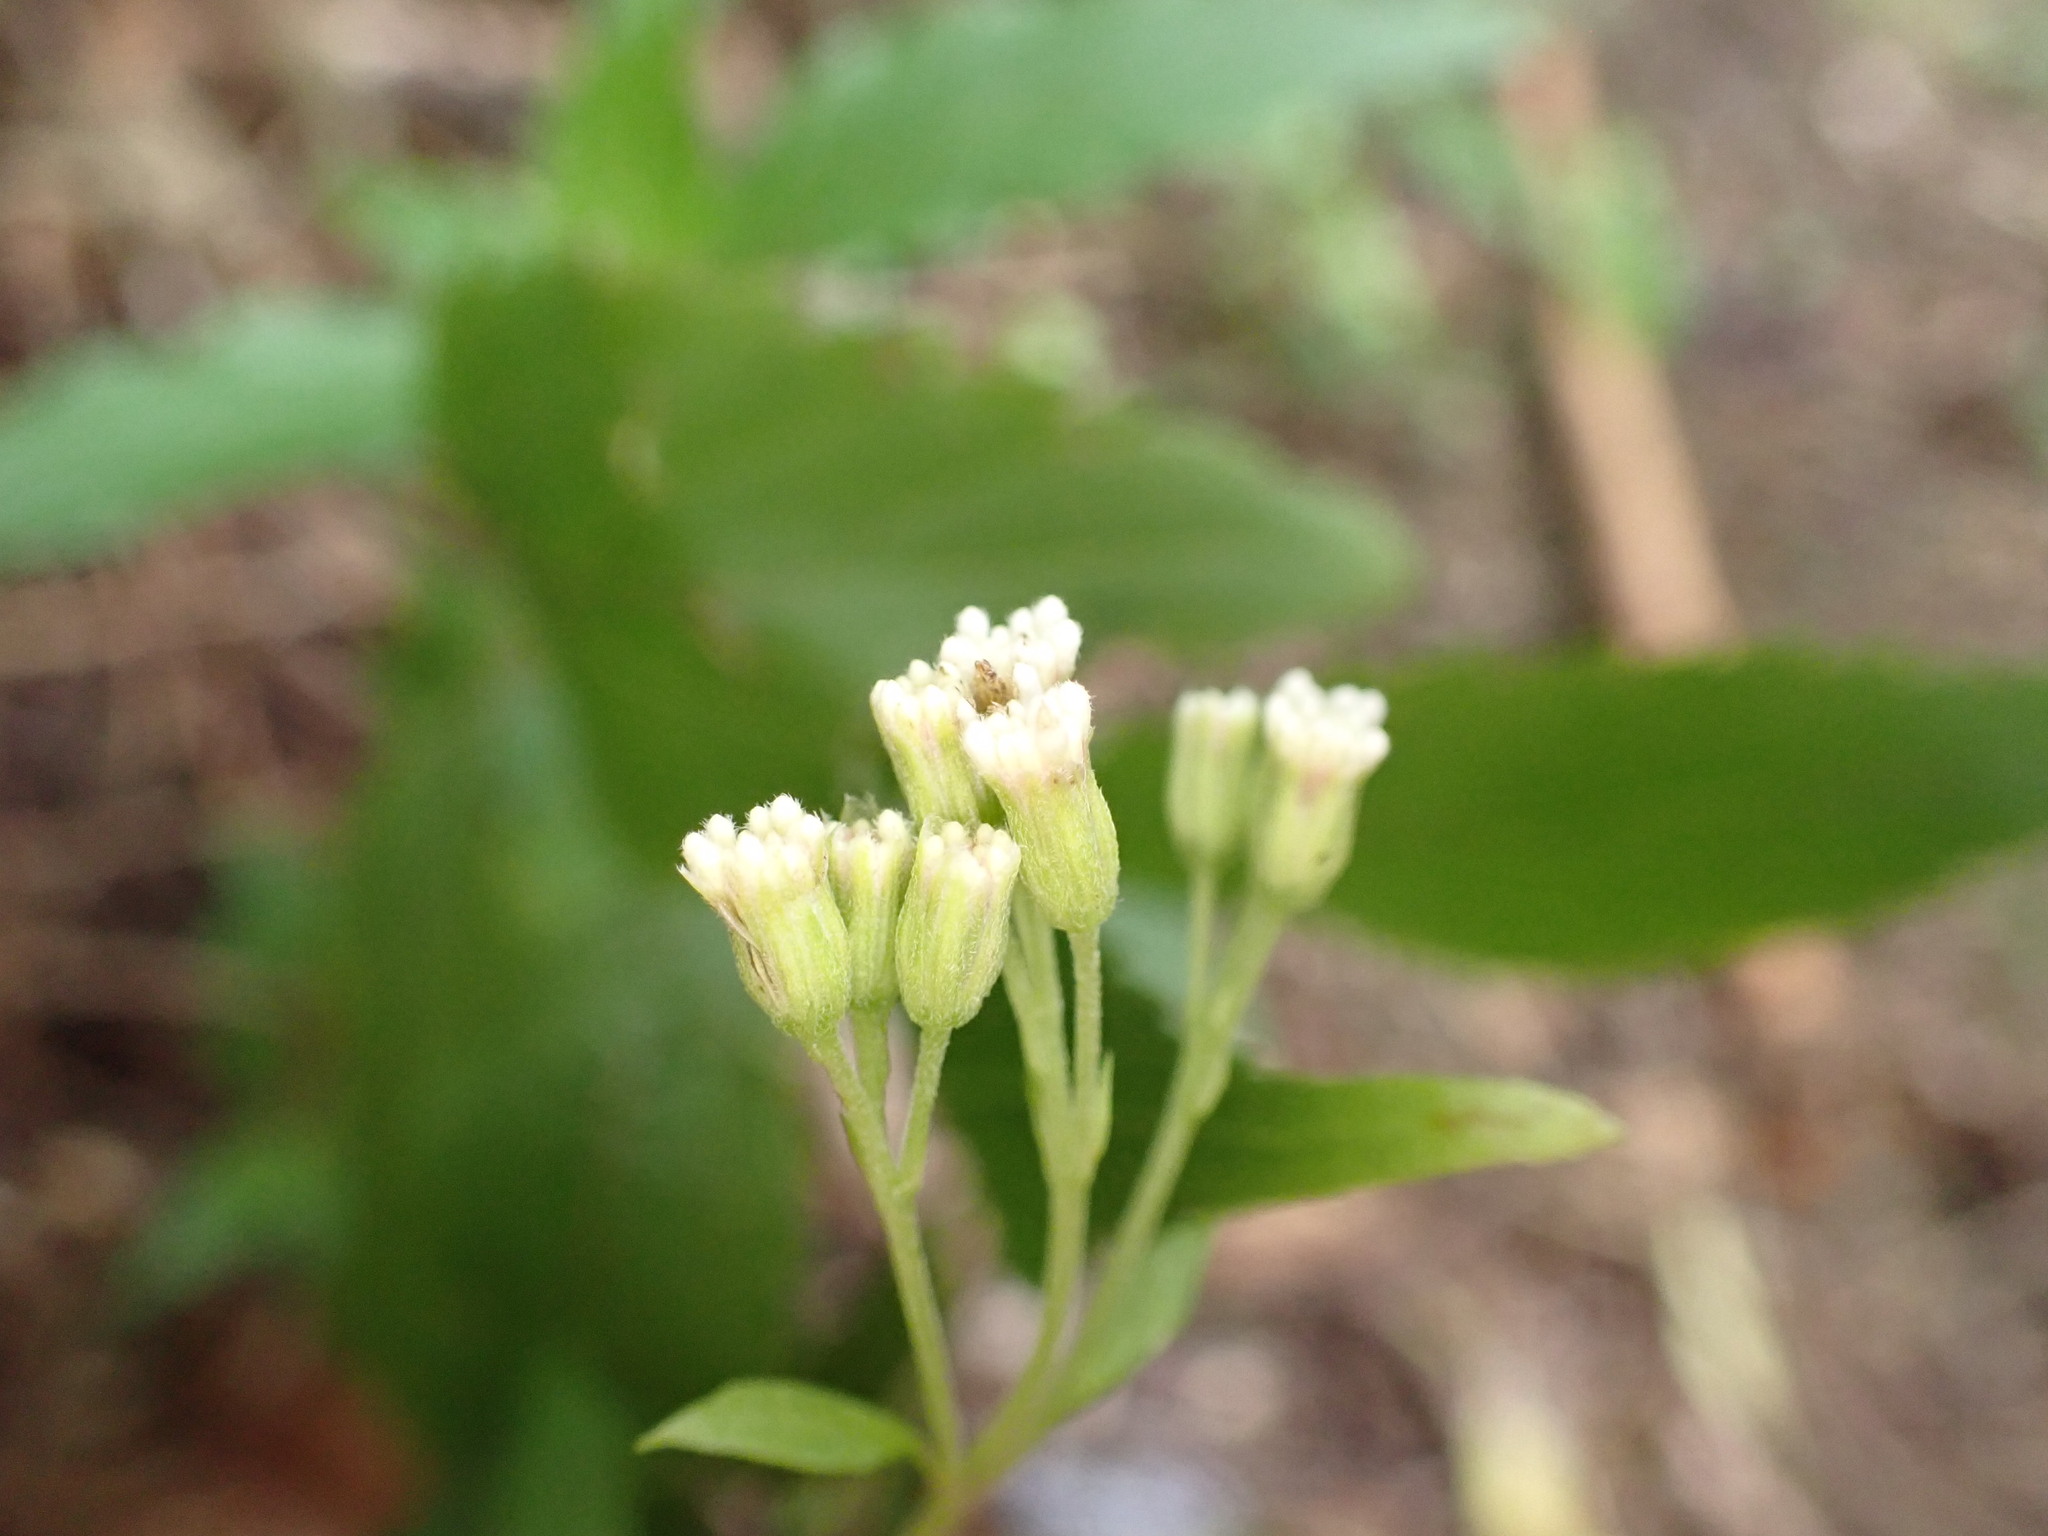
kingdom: Plantae
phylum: Tracheophyta
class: Magnoliopsida
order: Asterales
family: Asteraceae
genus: Ageratina
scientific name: Ageratina riparia
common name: Creeping croftonweed
